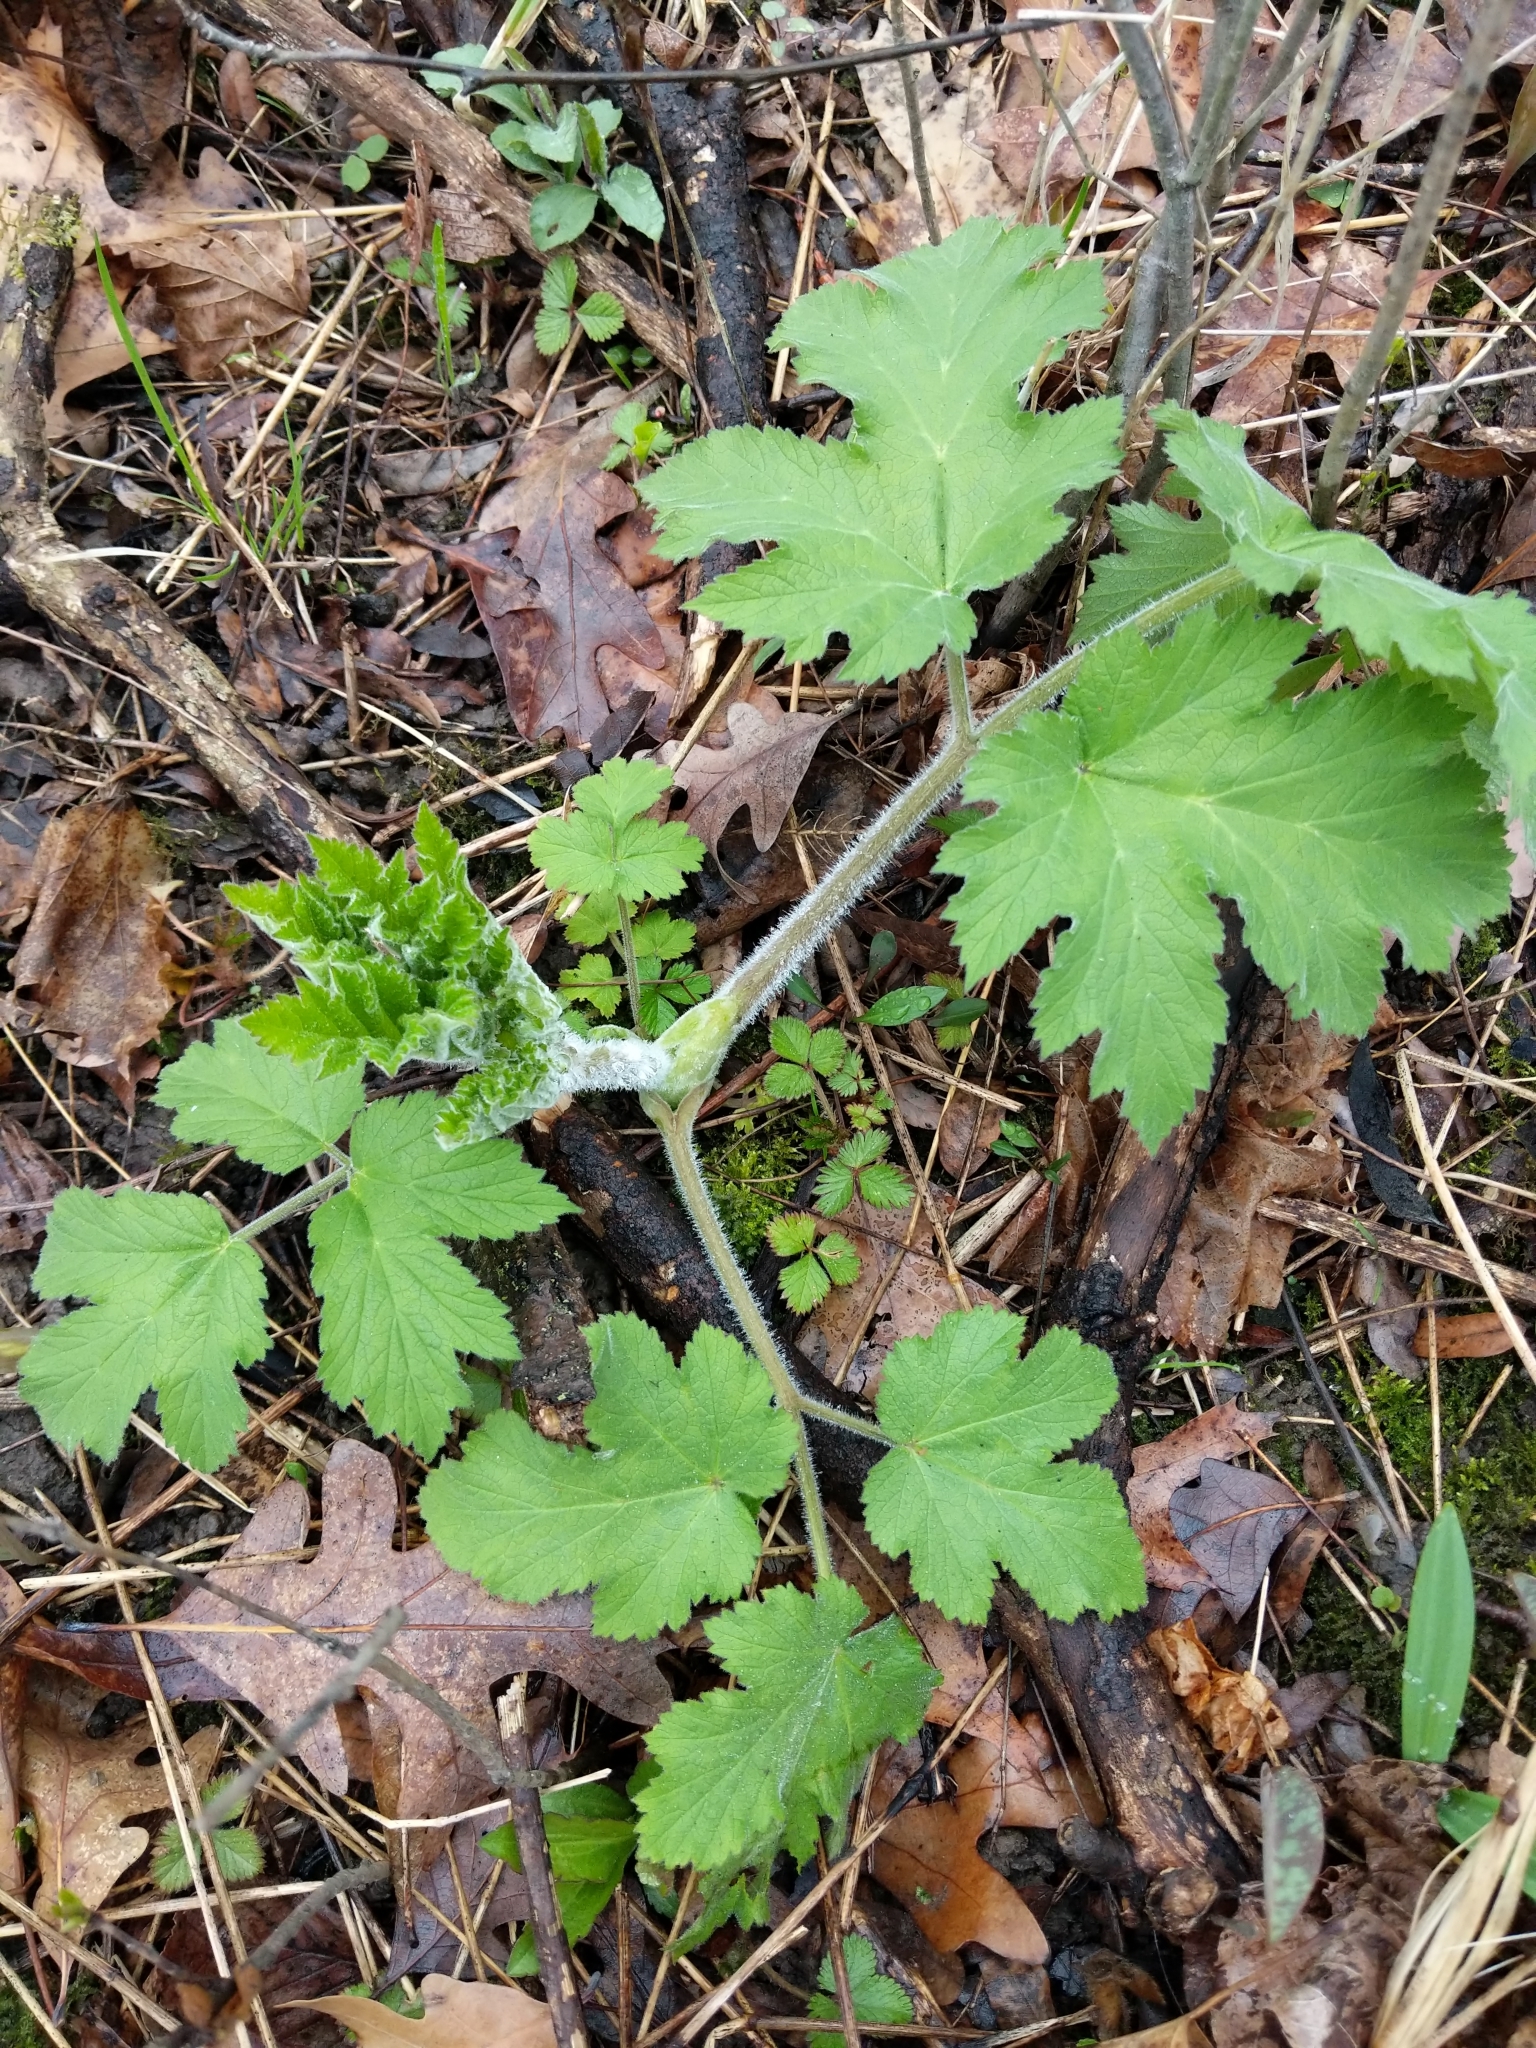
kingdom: Plantae
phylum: Tracheophyta
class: Magnoliopsida
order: Apiales
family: Apiaceae
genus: Heracleum
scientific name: Heracleum maximum
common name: American cow parsnip
